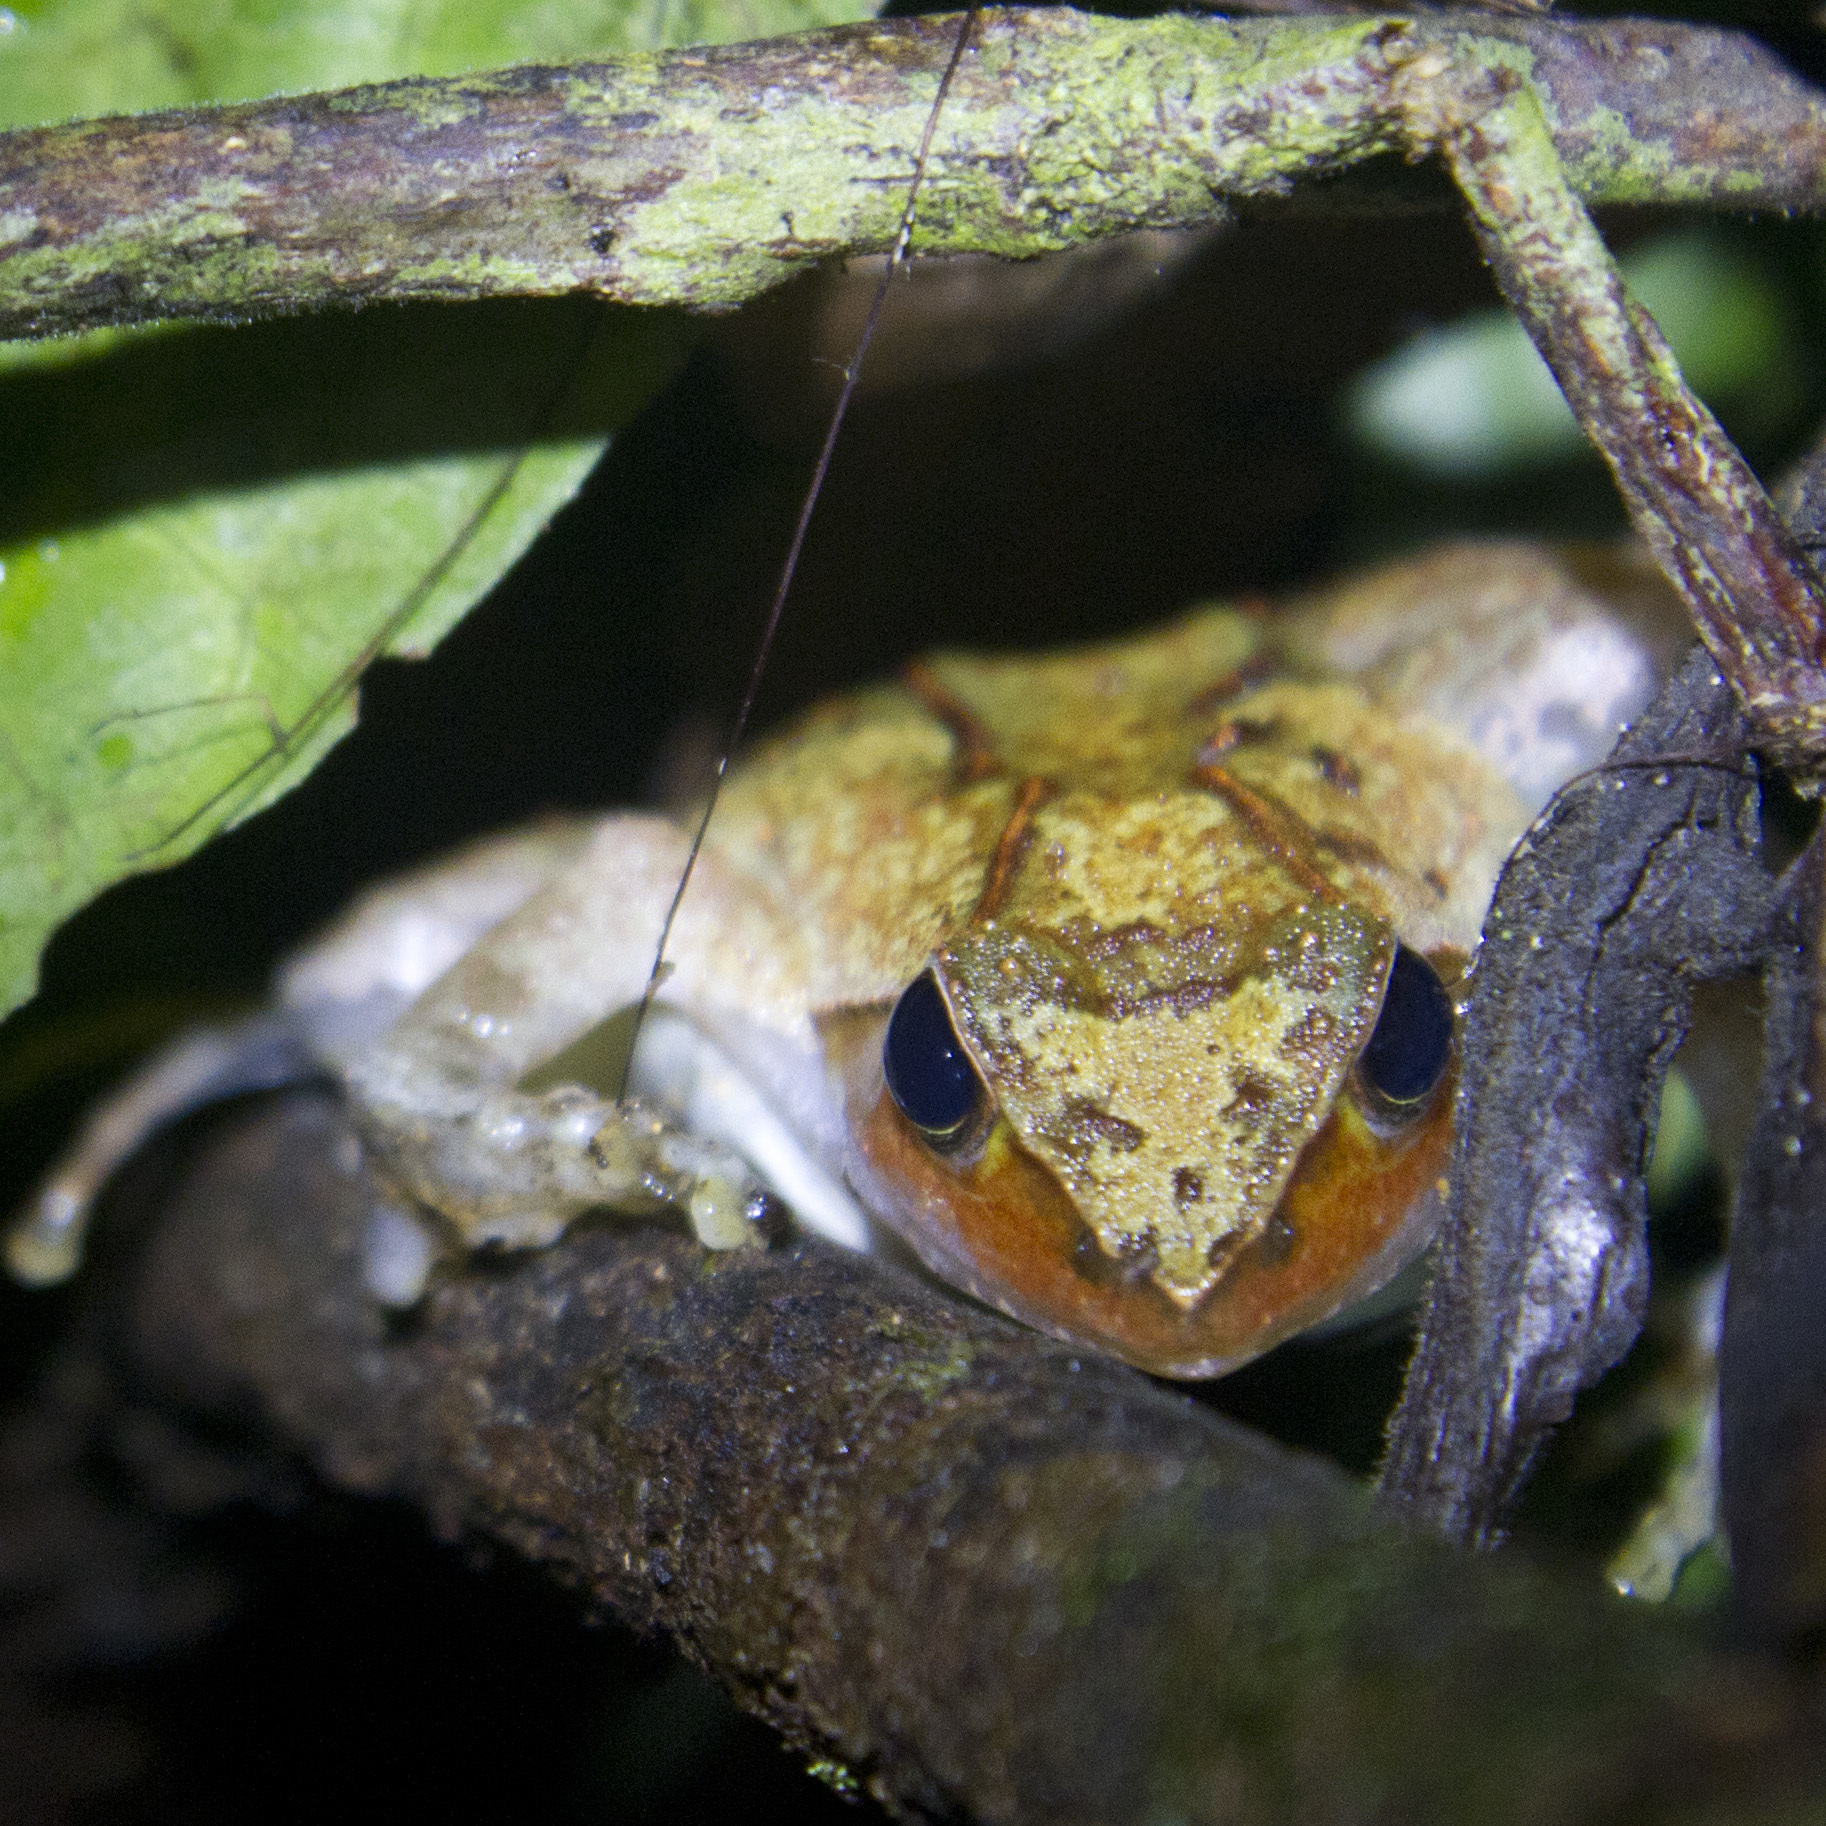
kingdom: Animalia
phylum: Chordata
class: Amphibia
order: Anura
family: Phrynobatrachidae
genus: Phrynobatrachus
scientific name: Phrynobatrachus auritus
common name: Eared river frog
